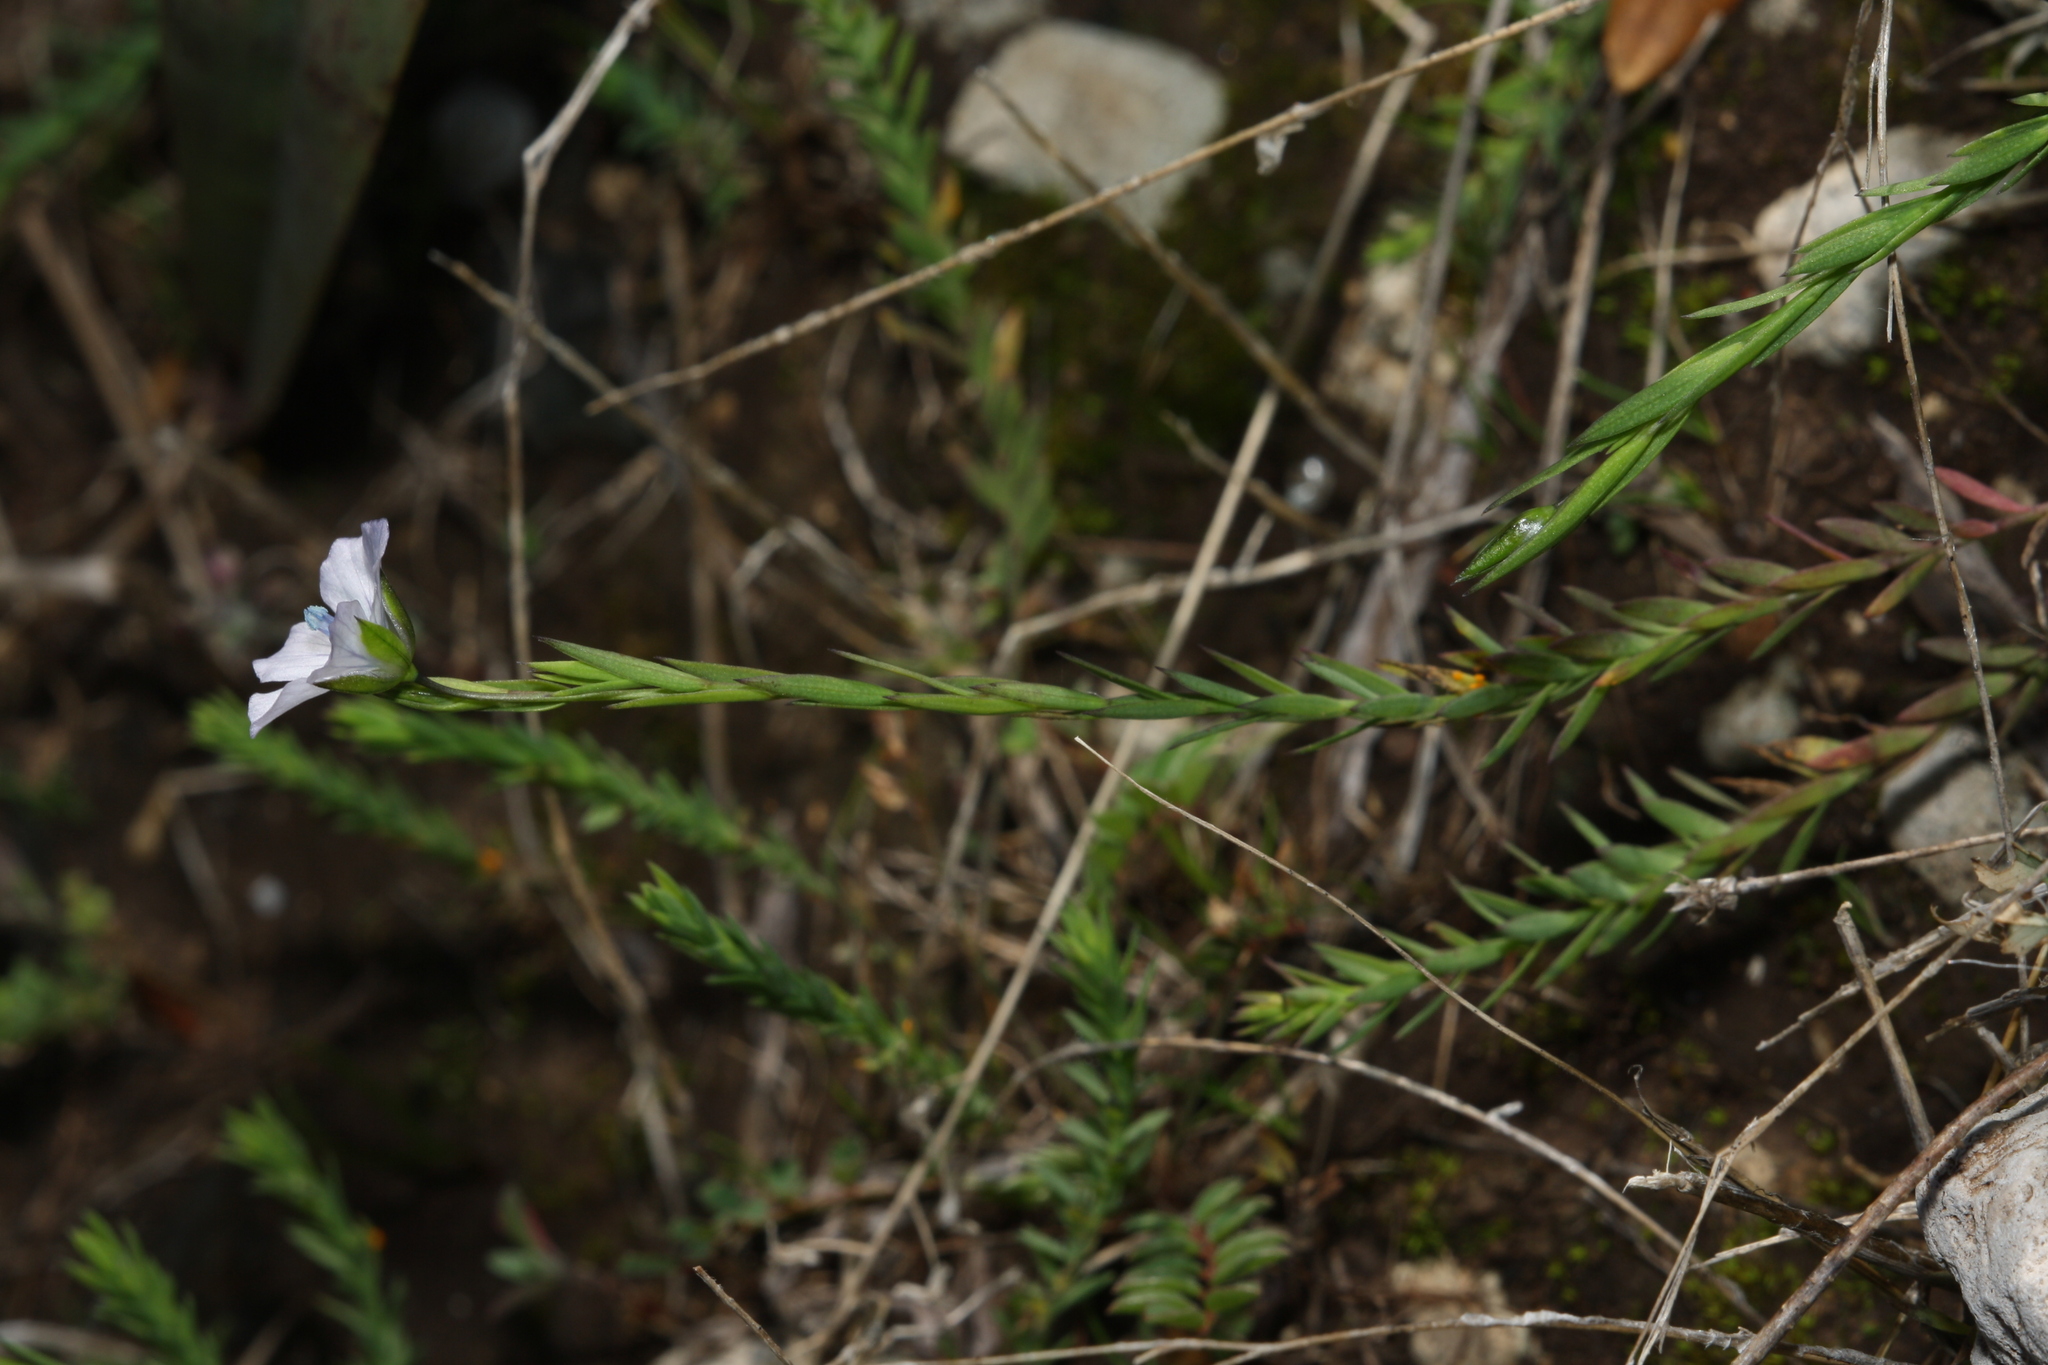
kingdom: Plantae
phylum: Tracheophyta
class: Magnoliopsida
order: Malpighiales
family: Linaceae
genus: Linum
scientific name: Linum bienne
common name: Pale flax
